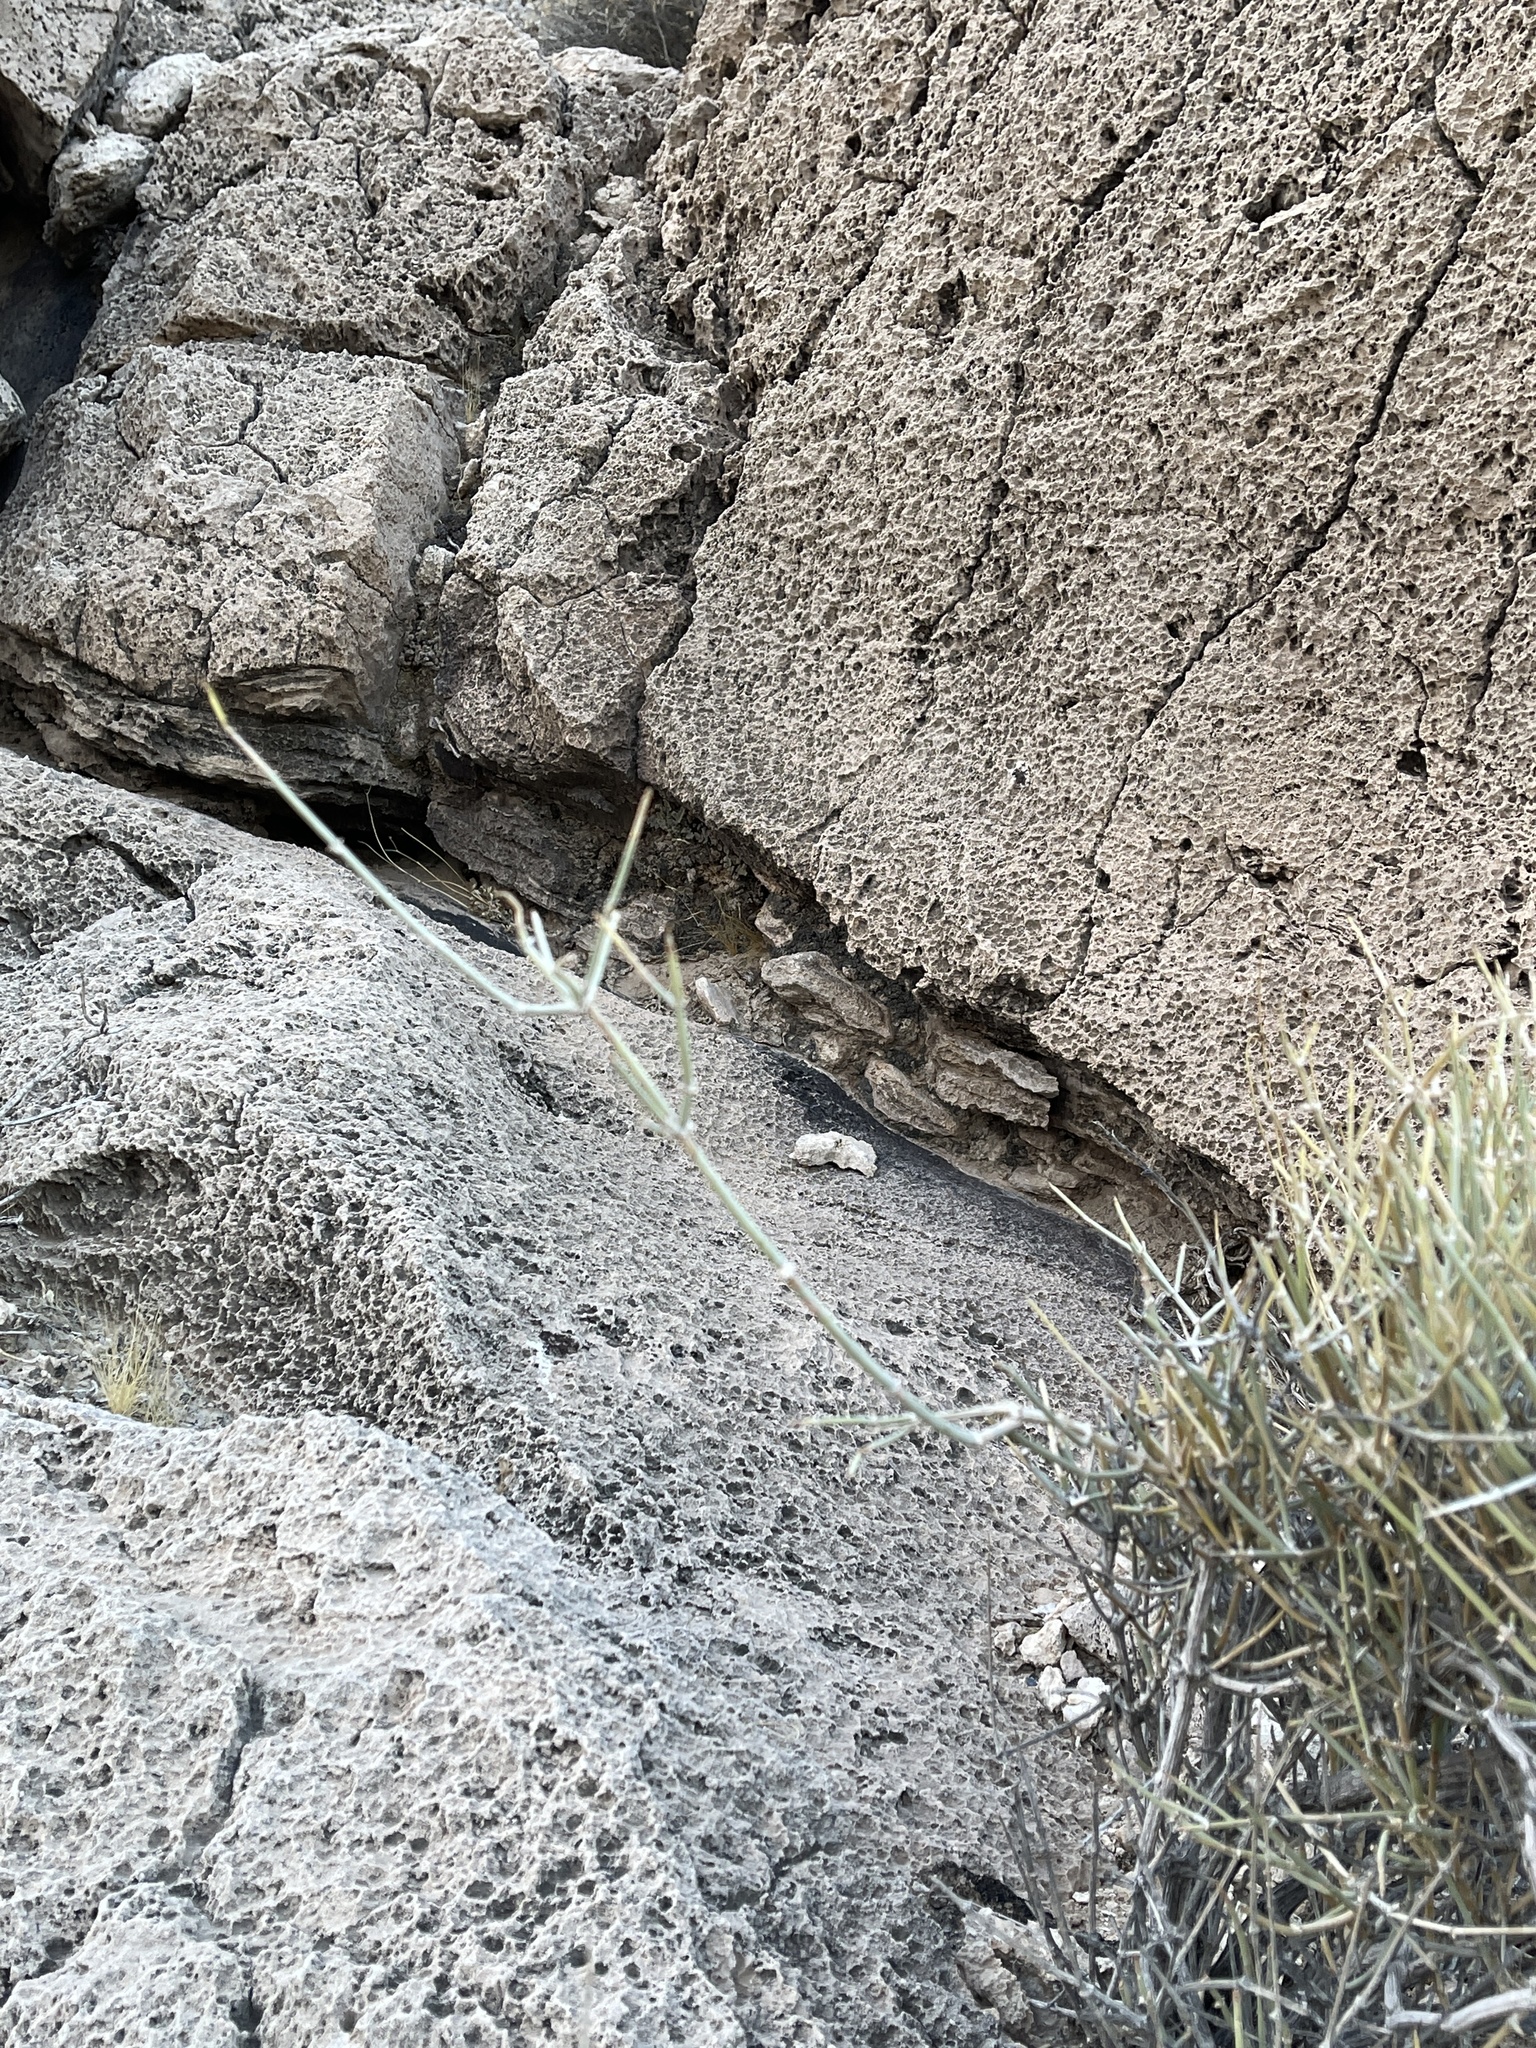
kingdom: Plantae
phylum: Tracheophyta
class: Gnetopsida
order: Ephedrales
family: Ephedraceae
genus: Ephedra
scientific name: Ephedra nevadensis
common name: Gray ephedra
